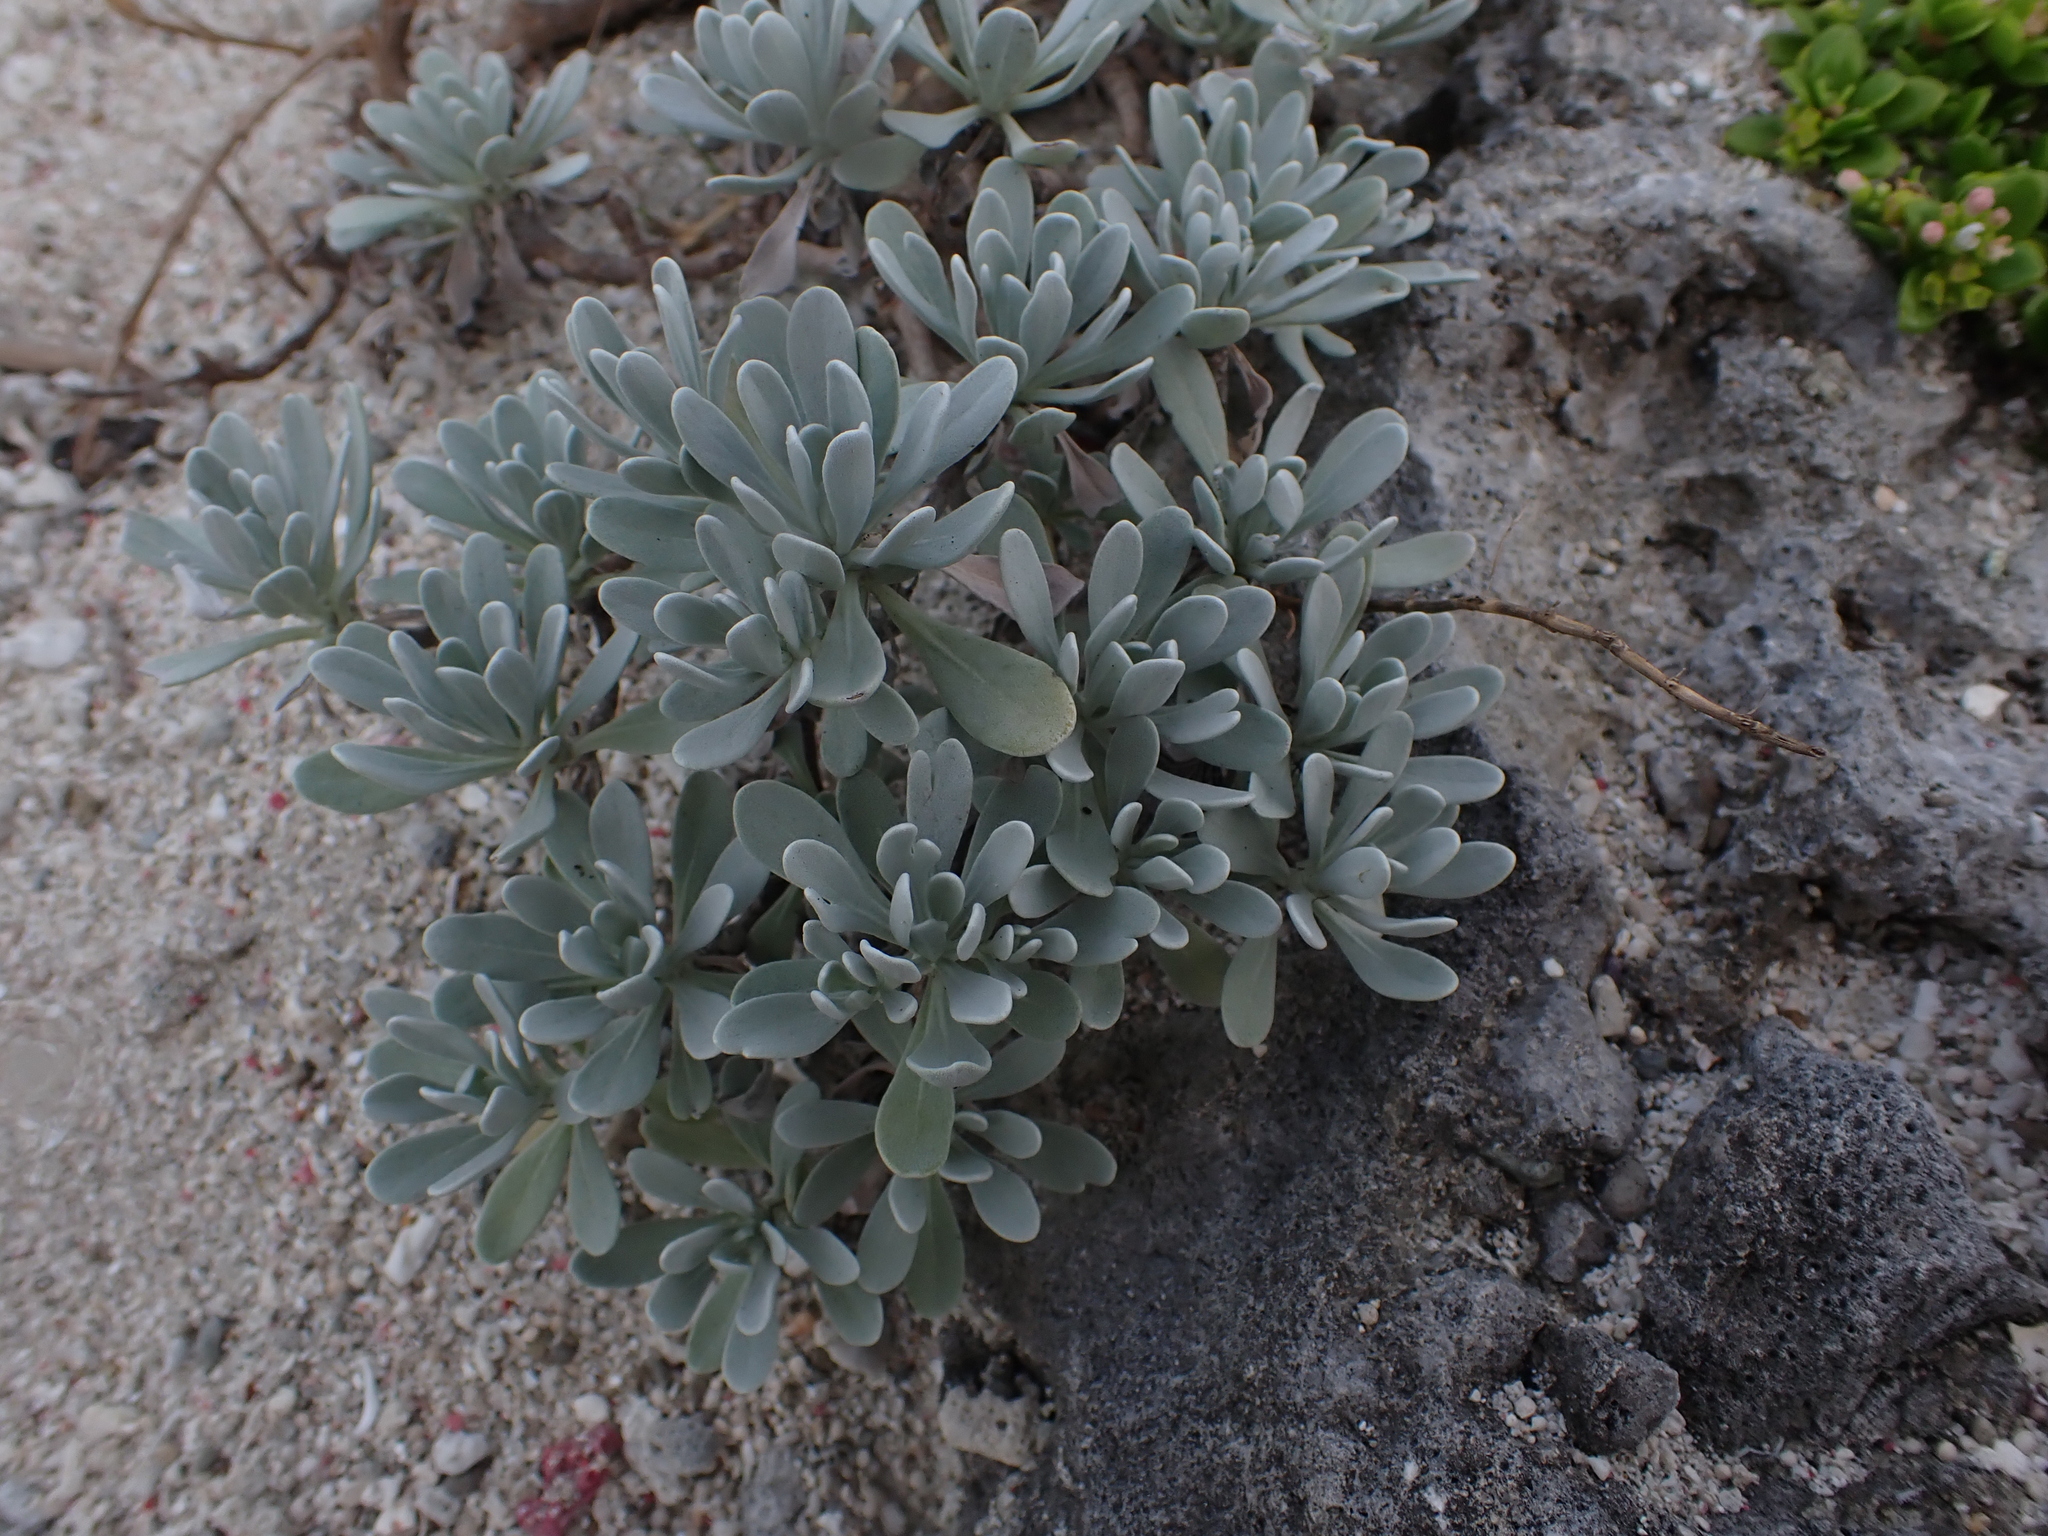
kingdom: Plantae
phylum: Tracheophyta
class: Magnoliopsida
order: Asterales
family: Asteraceae
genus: Crossostephium
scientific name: Crossostephium chinense
